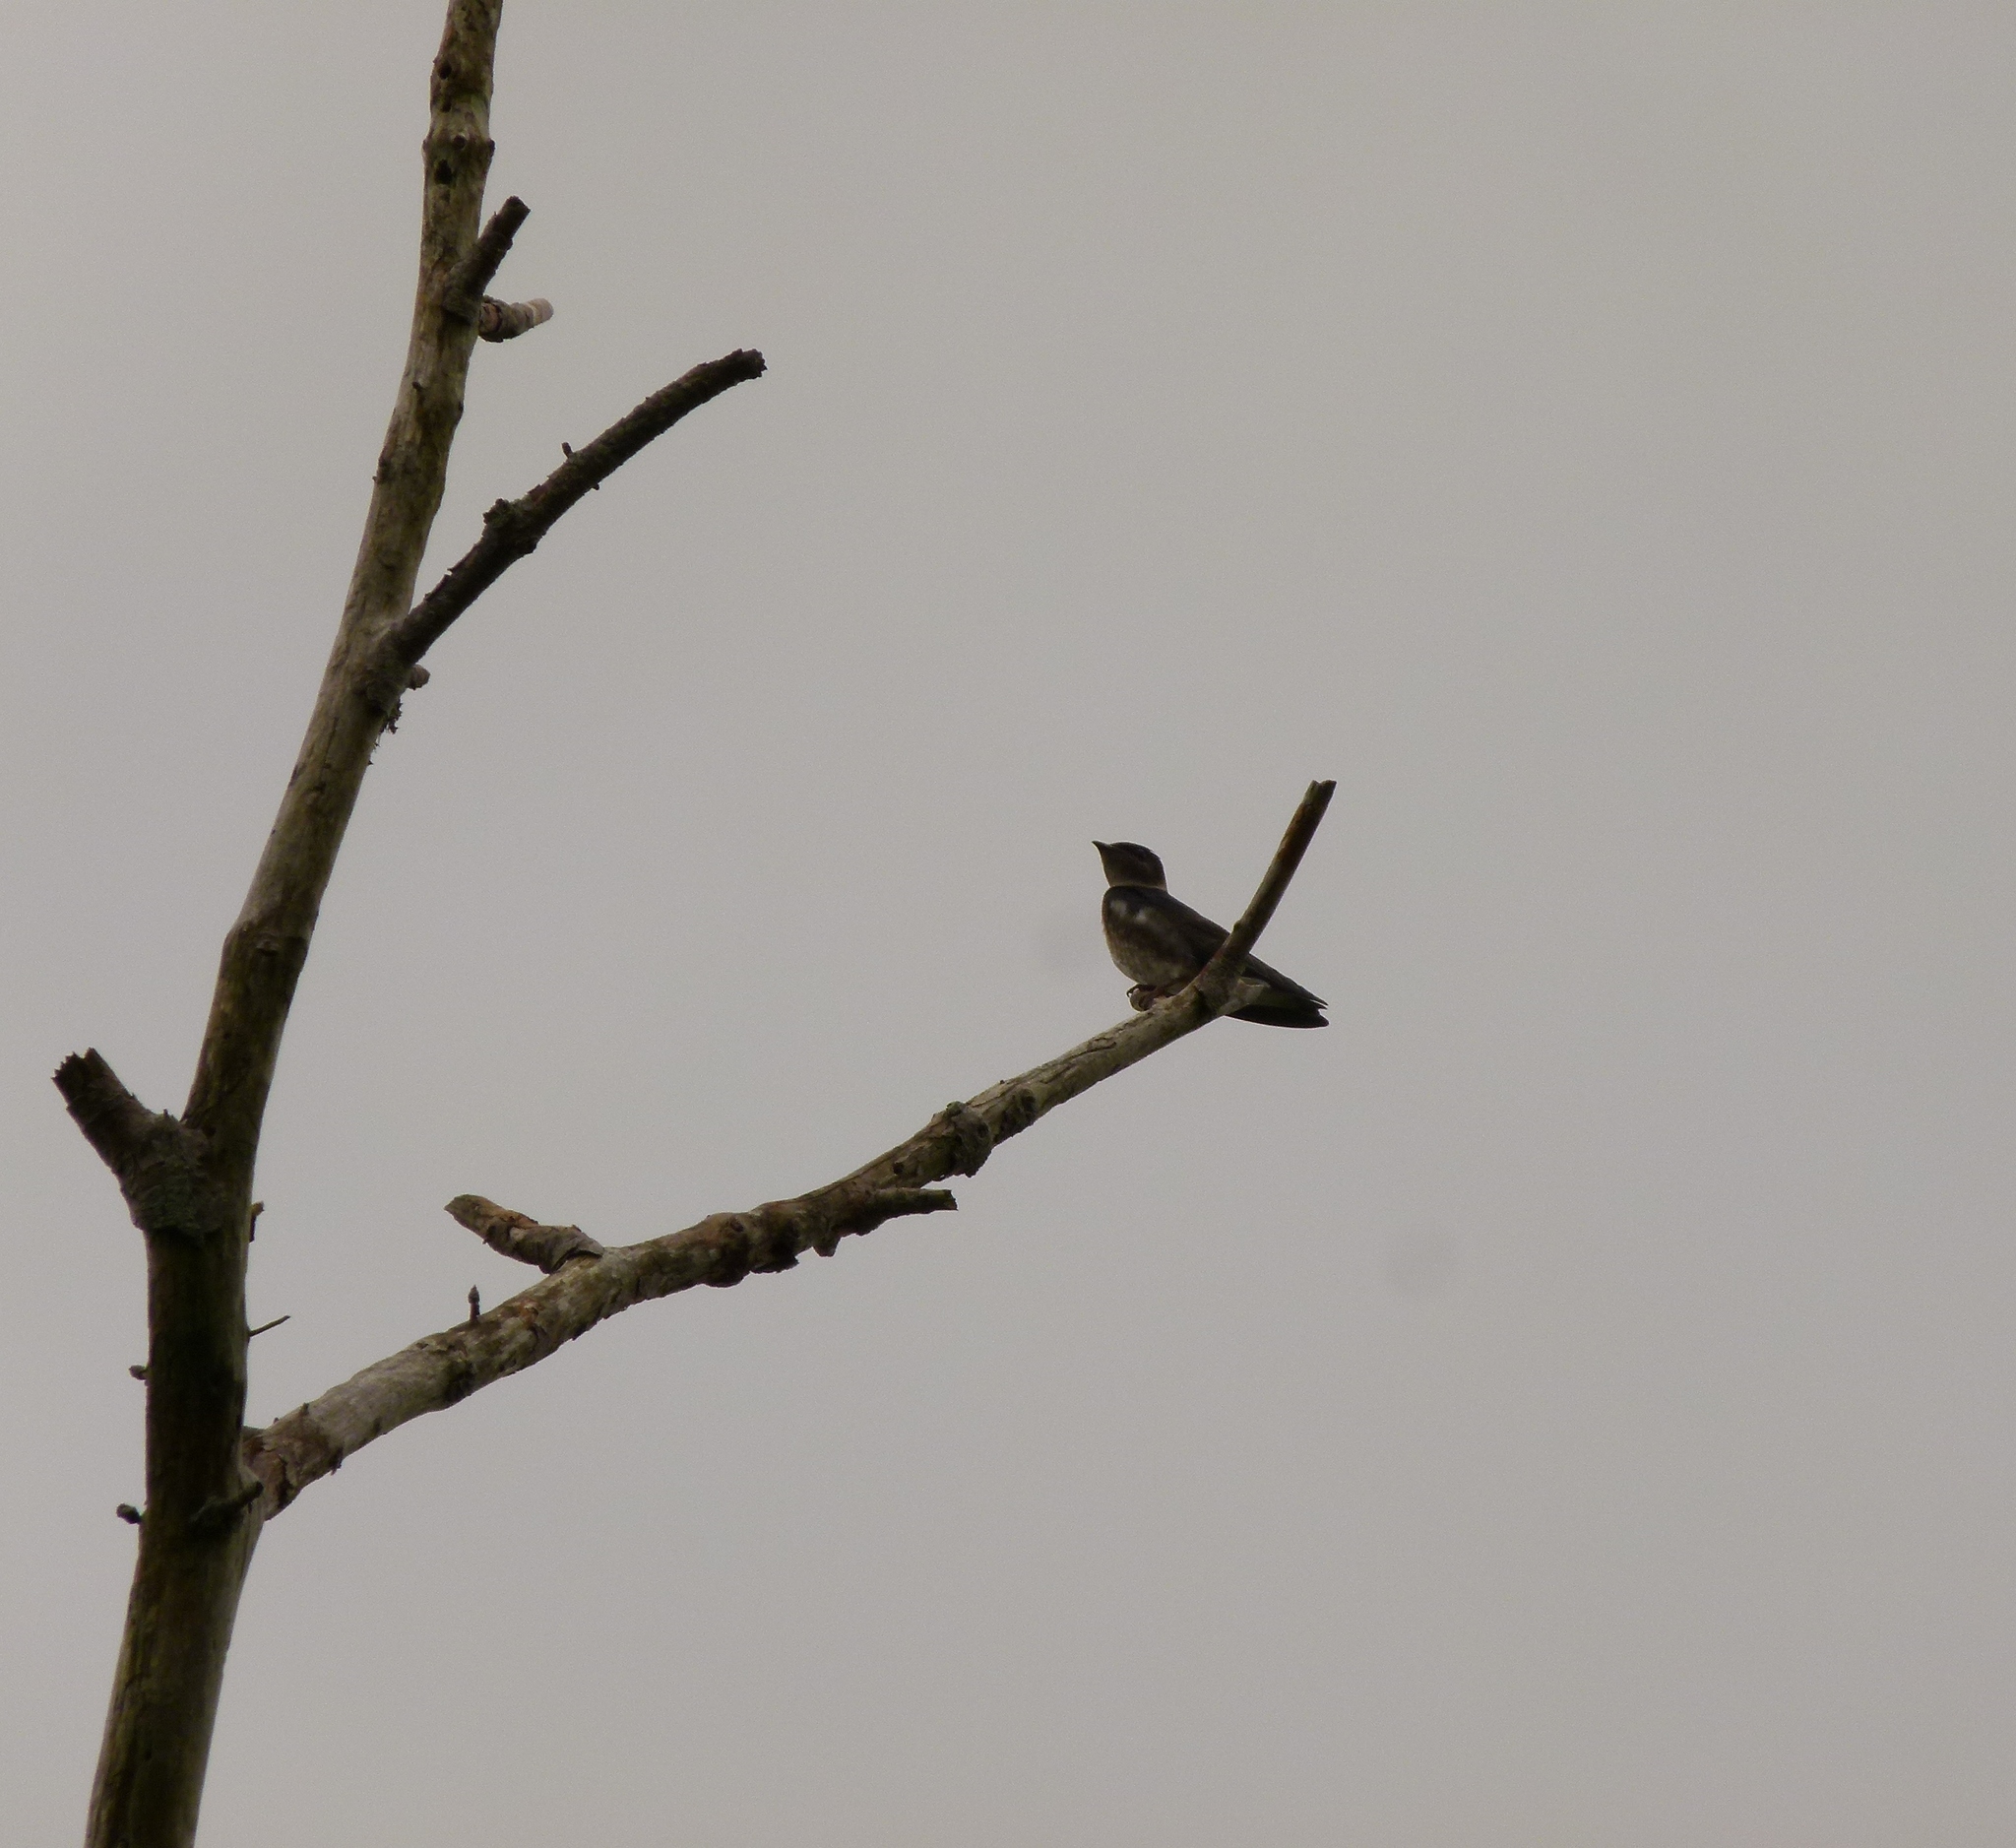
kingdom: Animalia
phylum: Chordata
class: Aves
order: Passeriformes
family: Hirundinidae
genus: Progne
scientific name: Progne subis
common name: Purple martin
